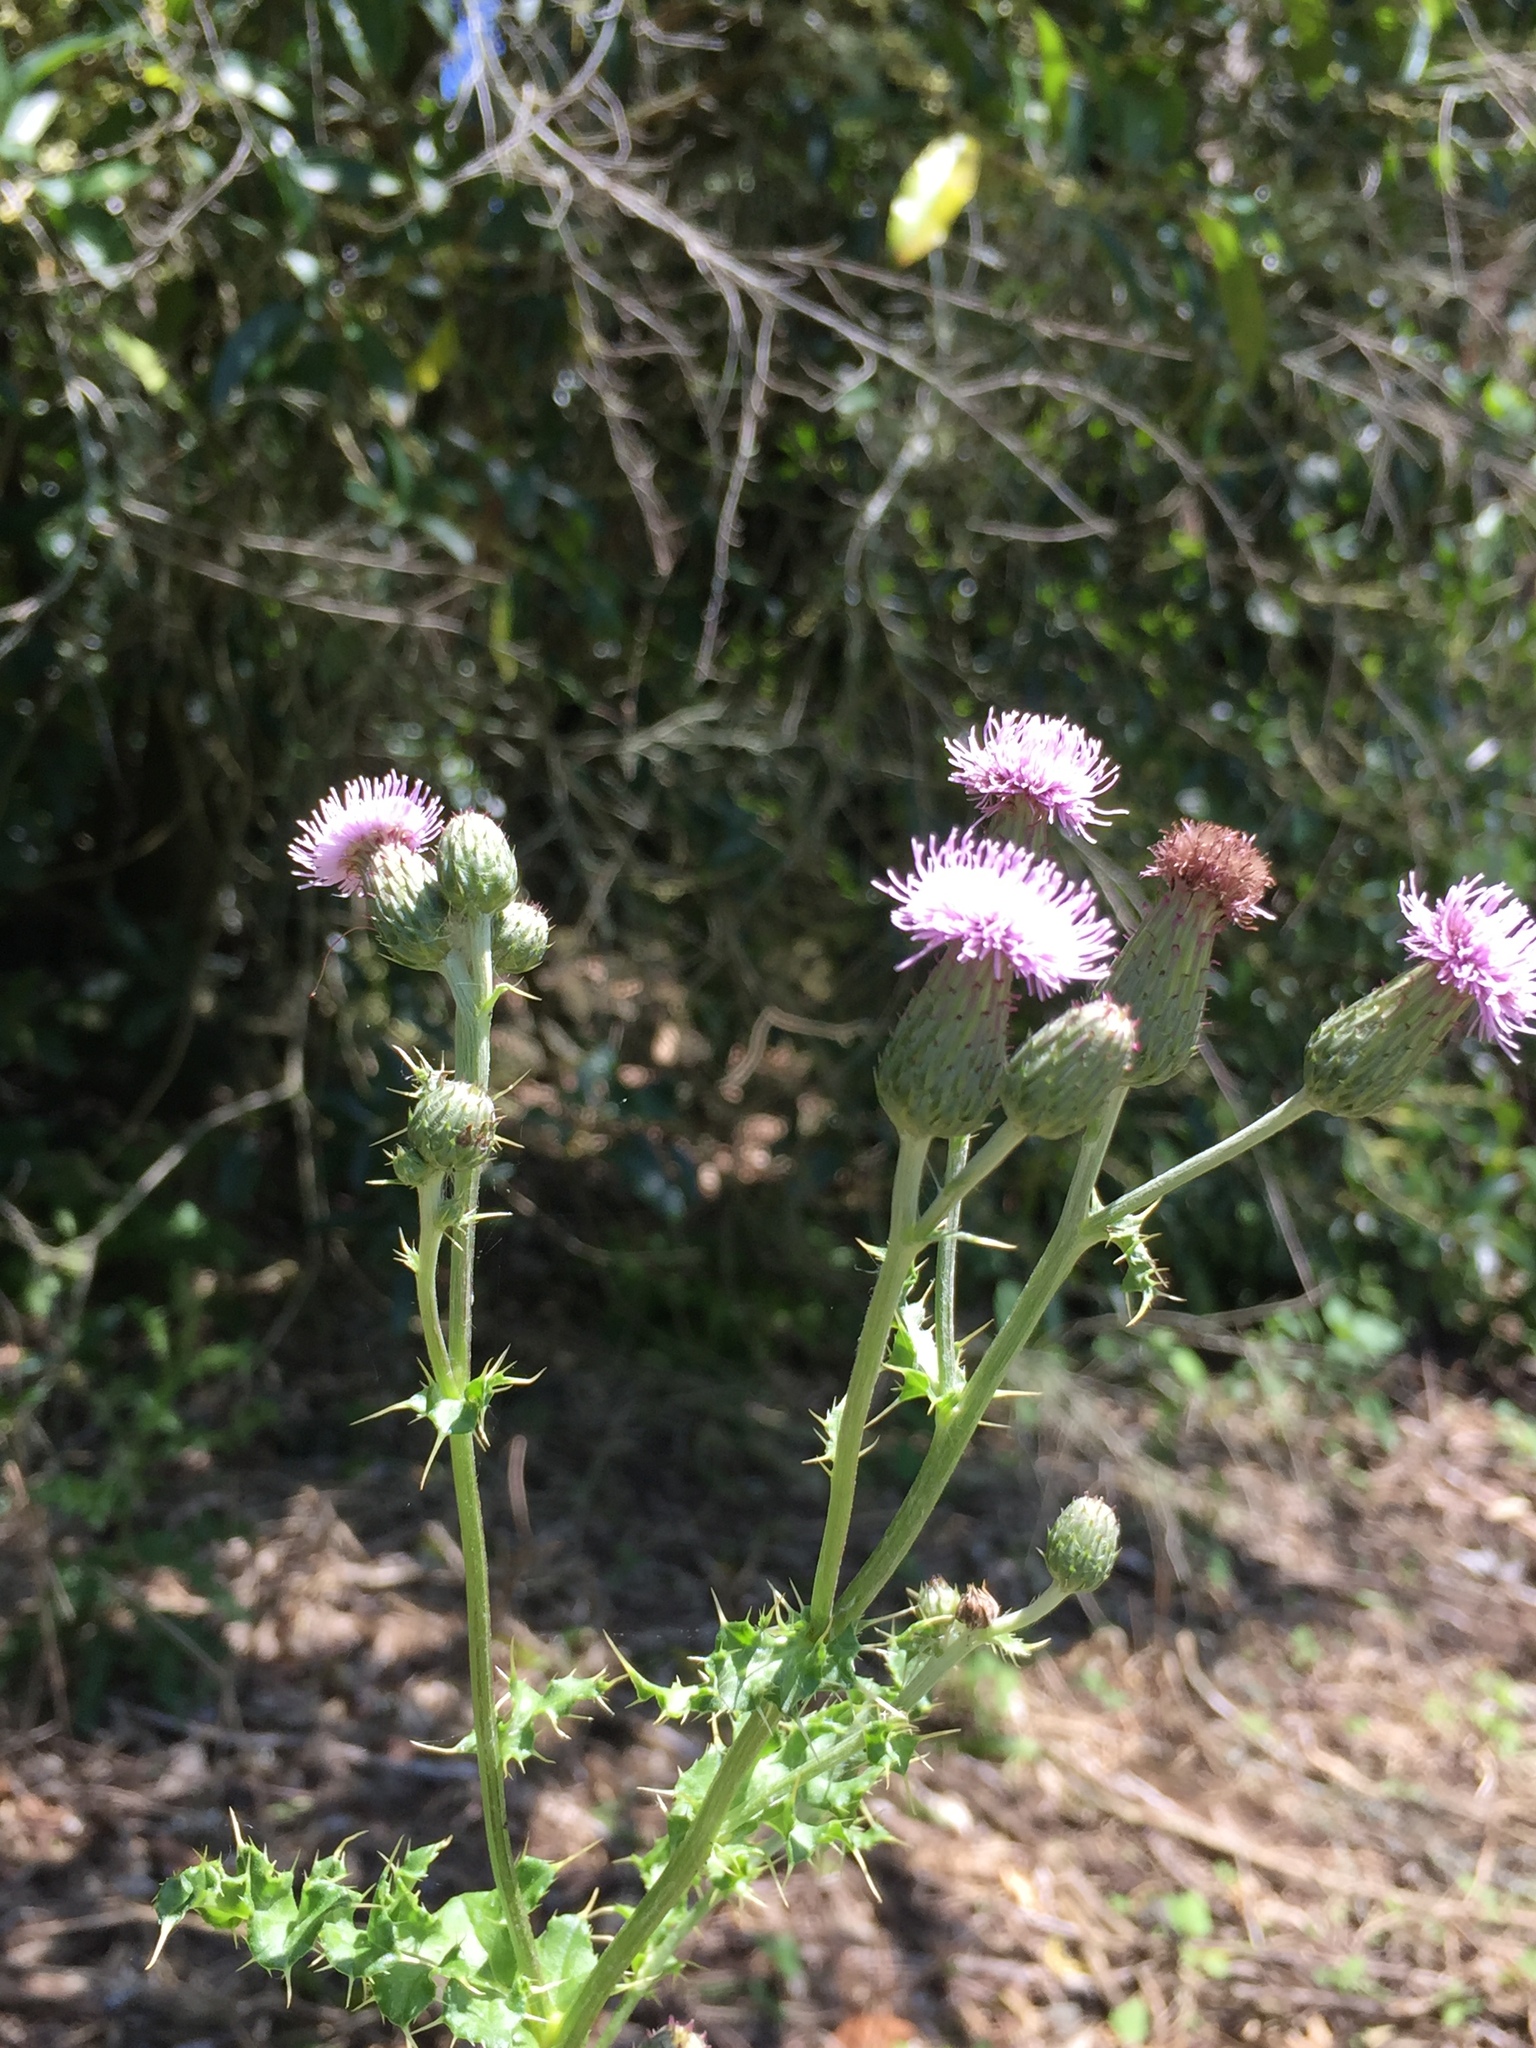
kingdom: Plantae
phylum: Tracheophyta
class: Magnoliopsida
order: Asterales
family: Asteraceae
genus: Cirsium
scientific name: Cirsium arvense
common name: Creeping thistle
